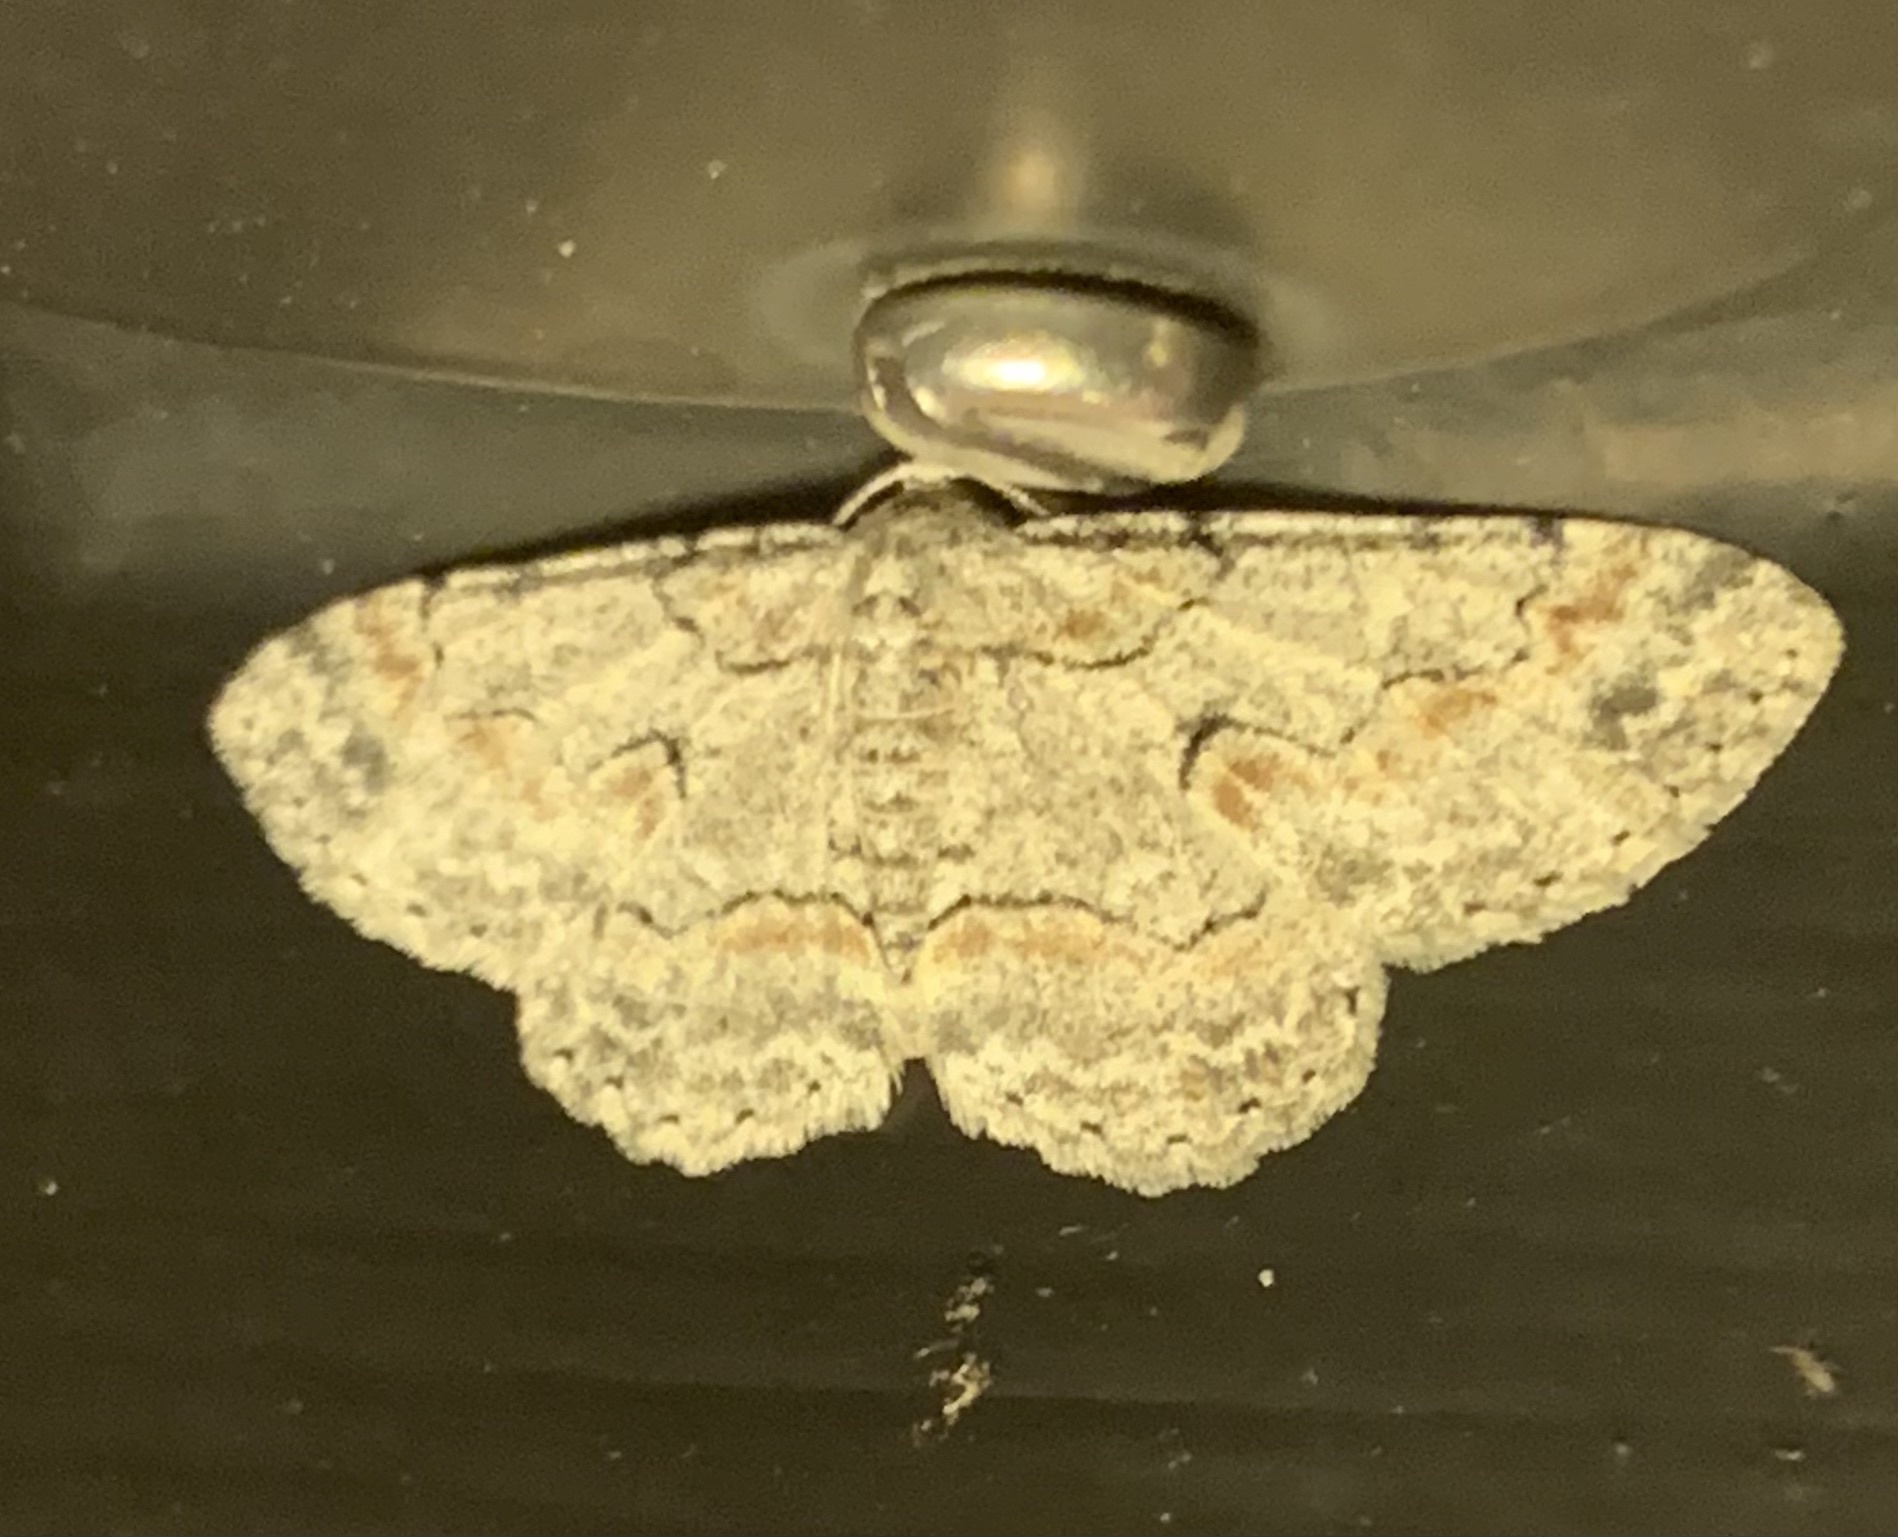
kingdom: Animalia
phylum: Arthropoda
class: Insecta
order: Lepidoptera
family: Geometridae
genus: Iridopsis
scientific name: Iridopsis defectaria
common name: Brown-shaded gray
